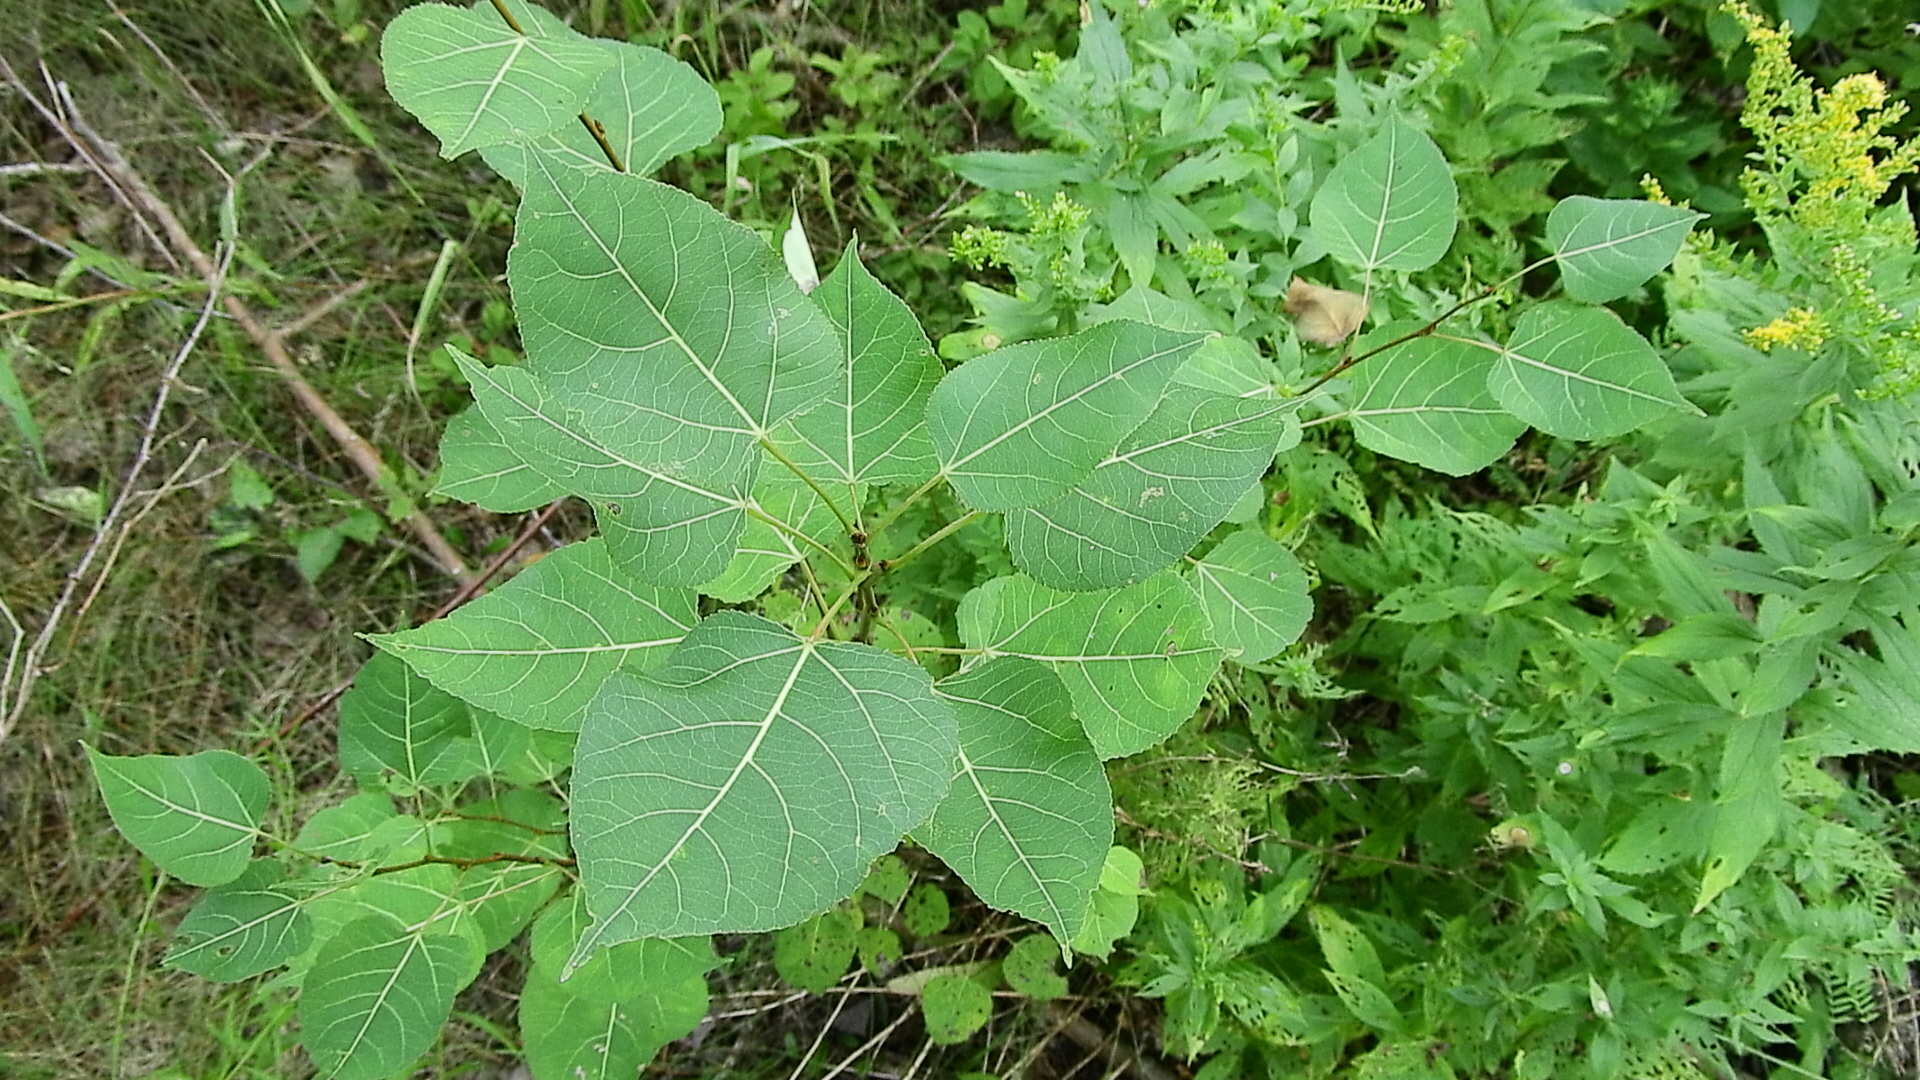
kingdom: Plantae
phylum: Tracheophyta
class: Magnoliopsida
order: Malpighiales
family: Salicaceae
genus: Populus
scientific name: Populus tremuloides
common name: Quaking aspen
